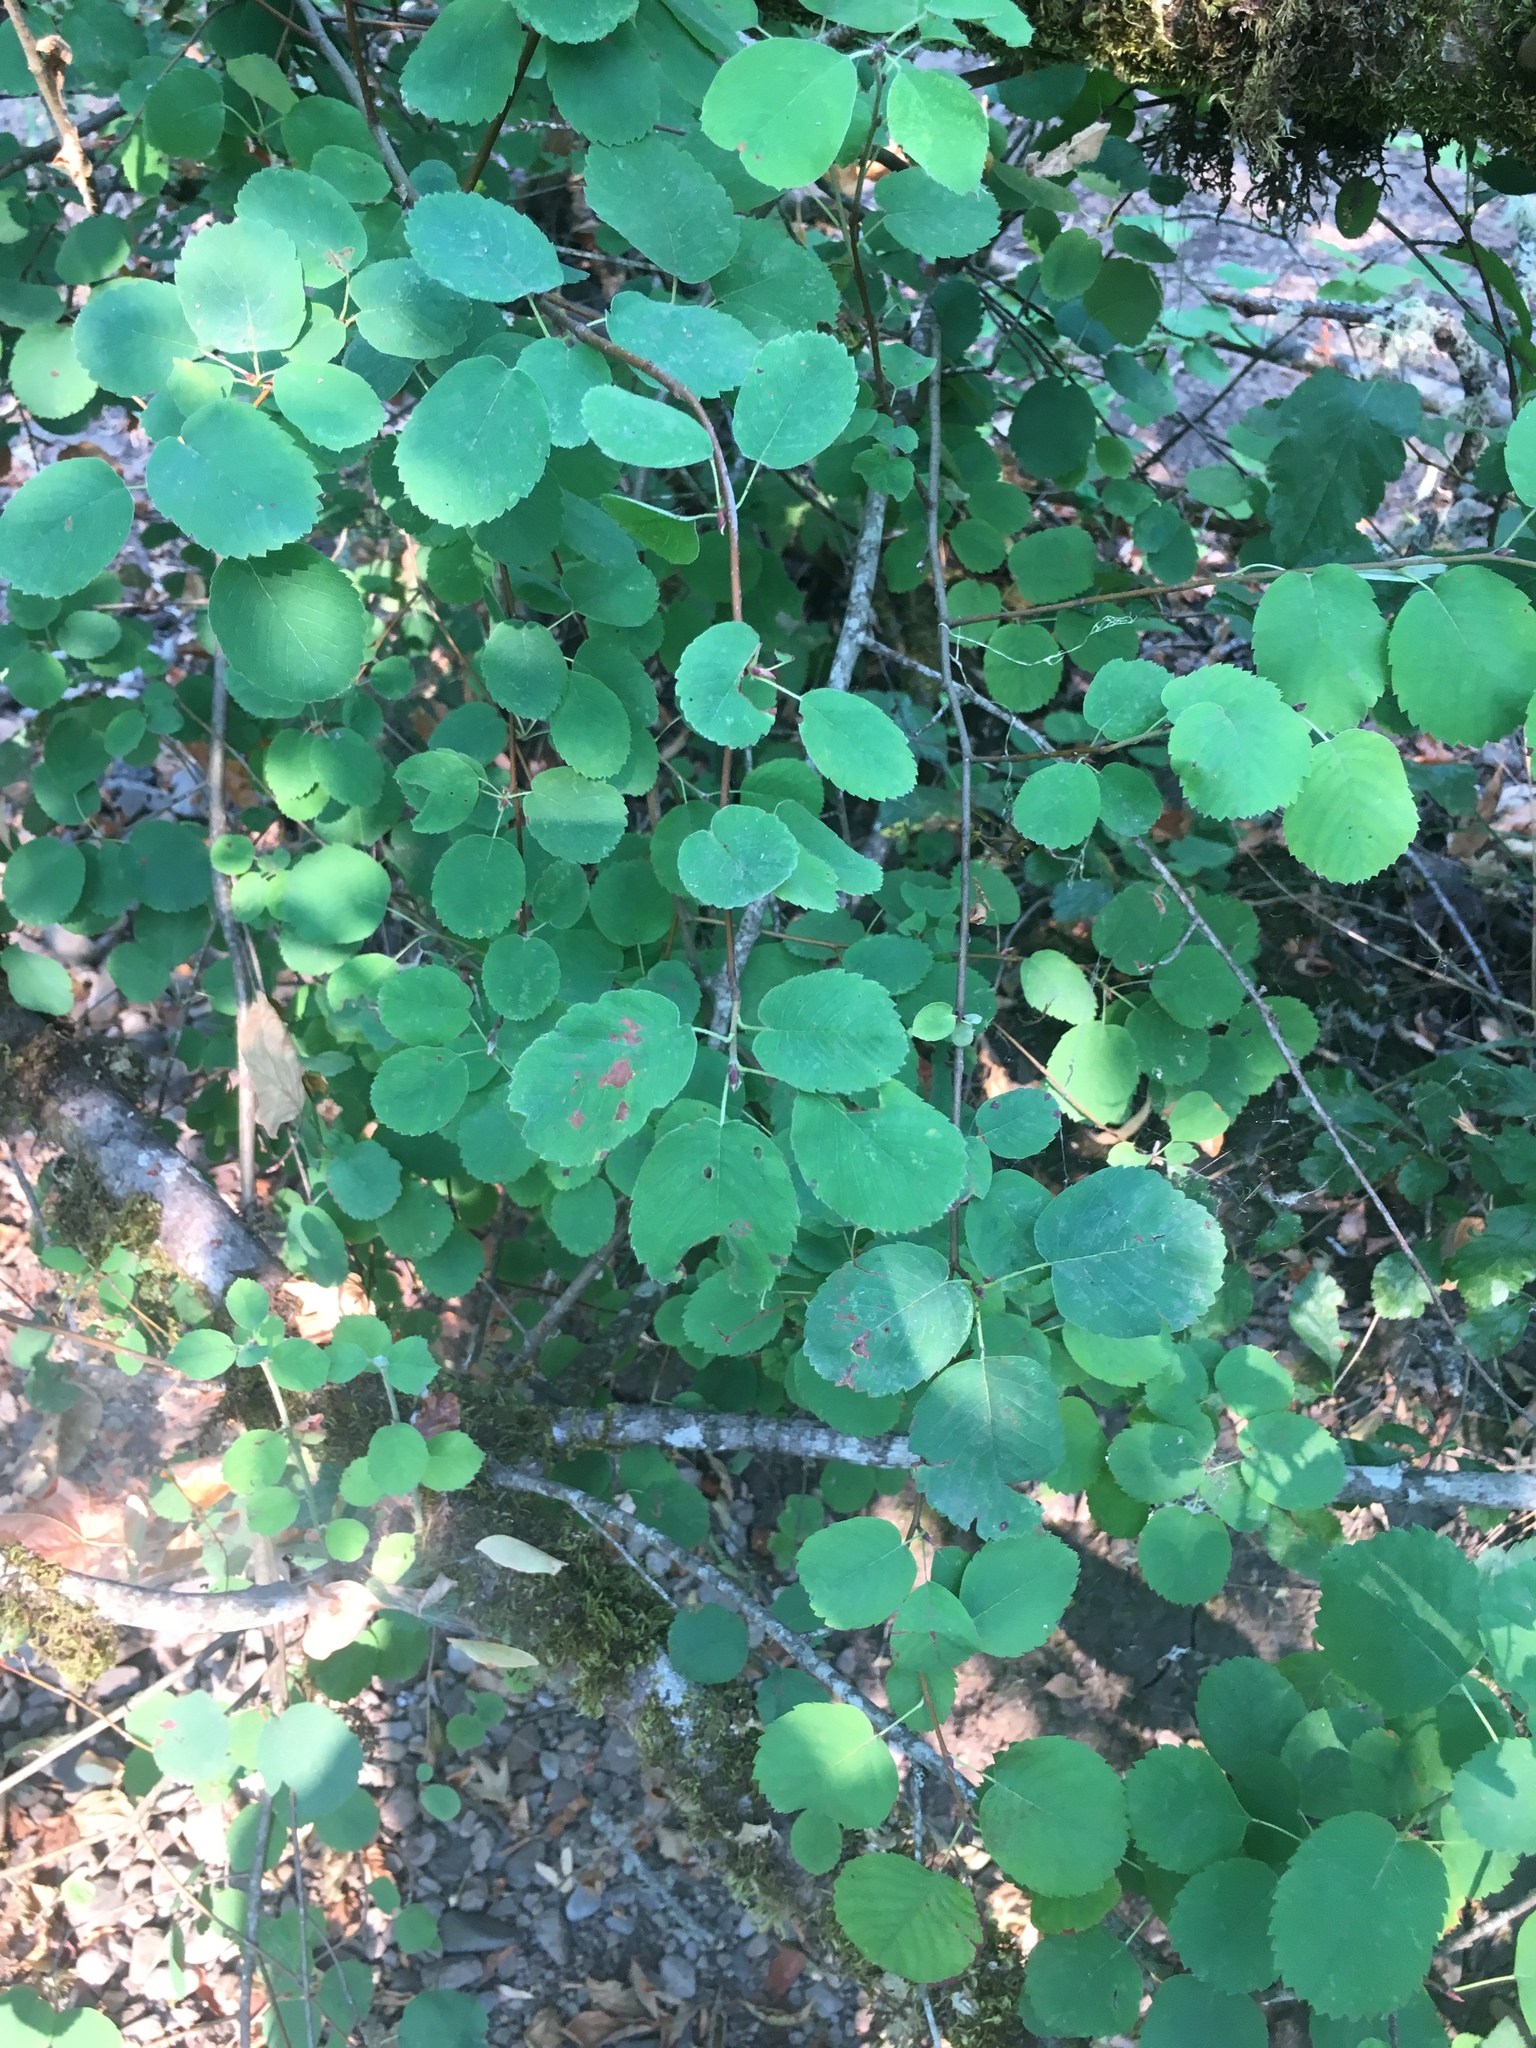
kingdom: Plantae
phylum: Tracheophyta
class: Magnoliopsida
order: Rosales
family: Rosaceae
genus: Amelanchier
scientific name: Amelanchier alnifolia
